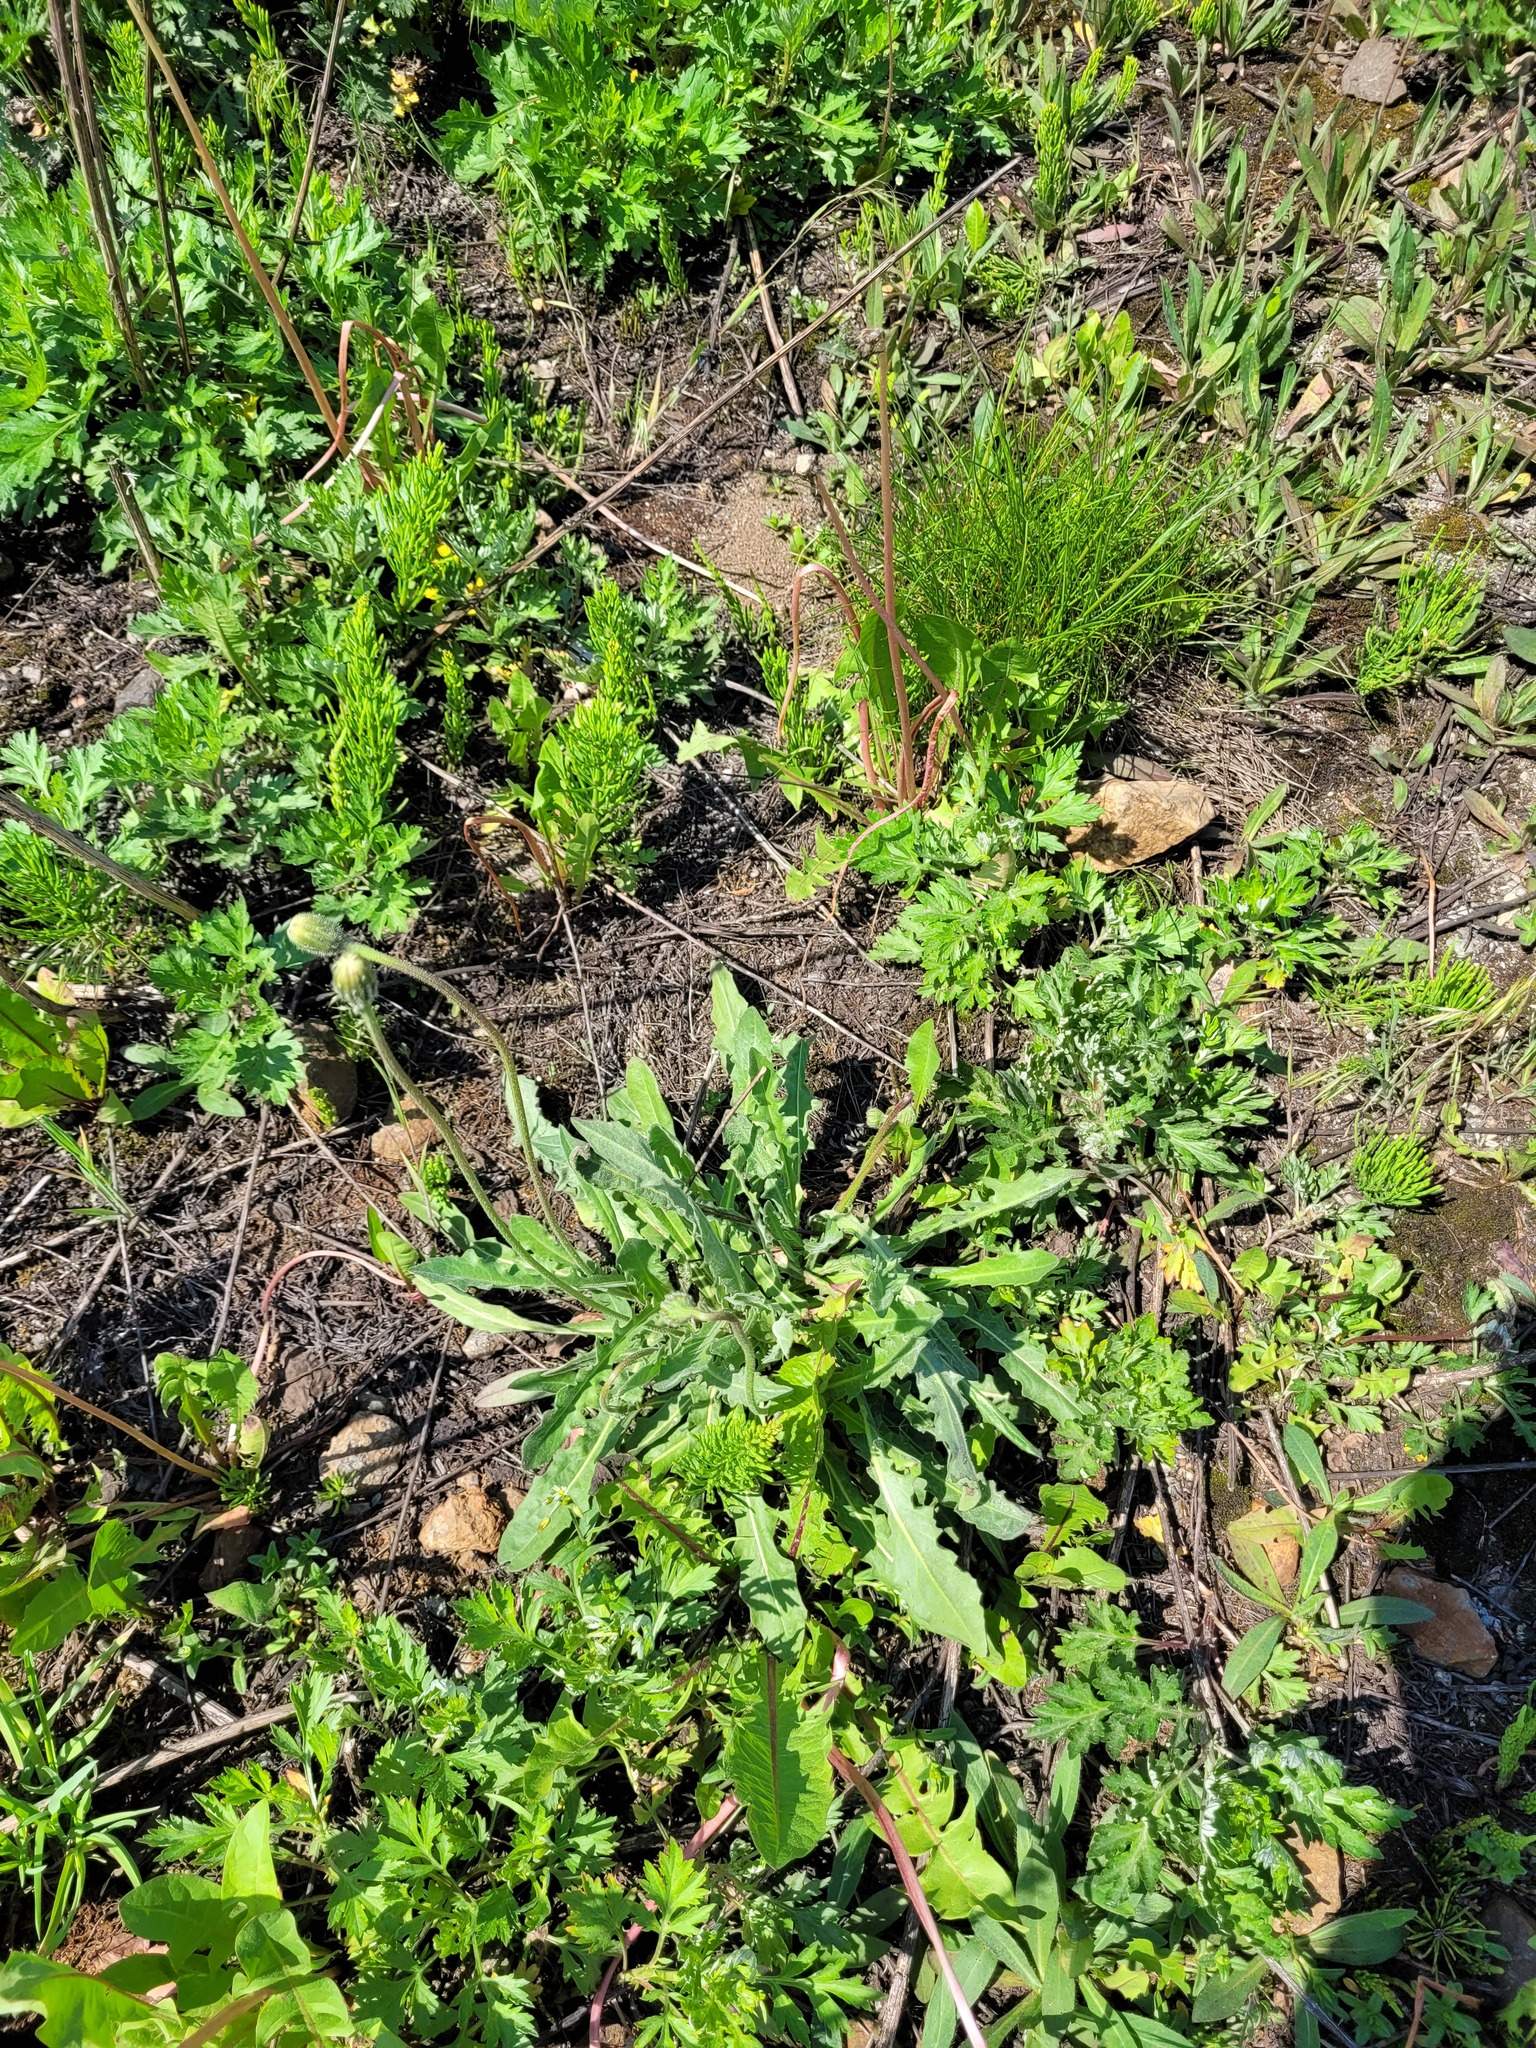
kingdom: Plantae
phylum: Tracheophyta
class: Magnoliopsida
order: Asterales
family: Asteraceae
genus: Leontodon
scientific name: Leontodon hispidus
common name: Rough hawkbit
